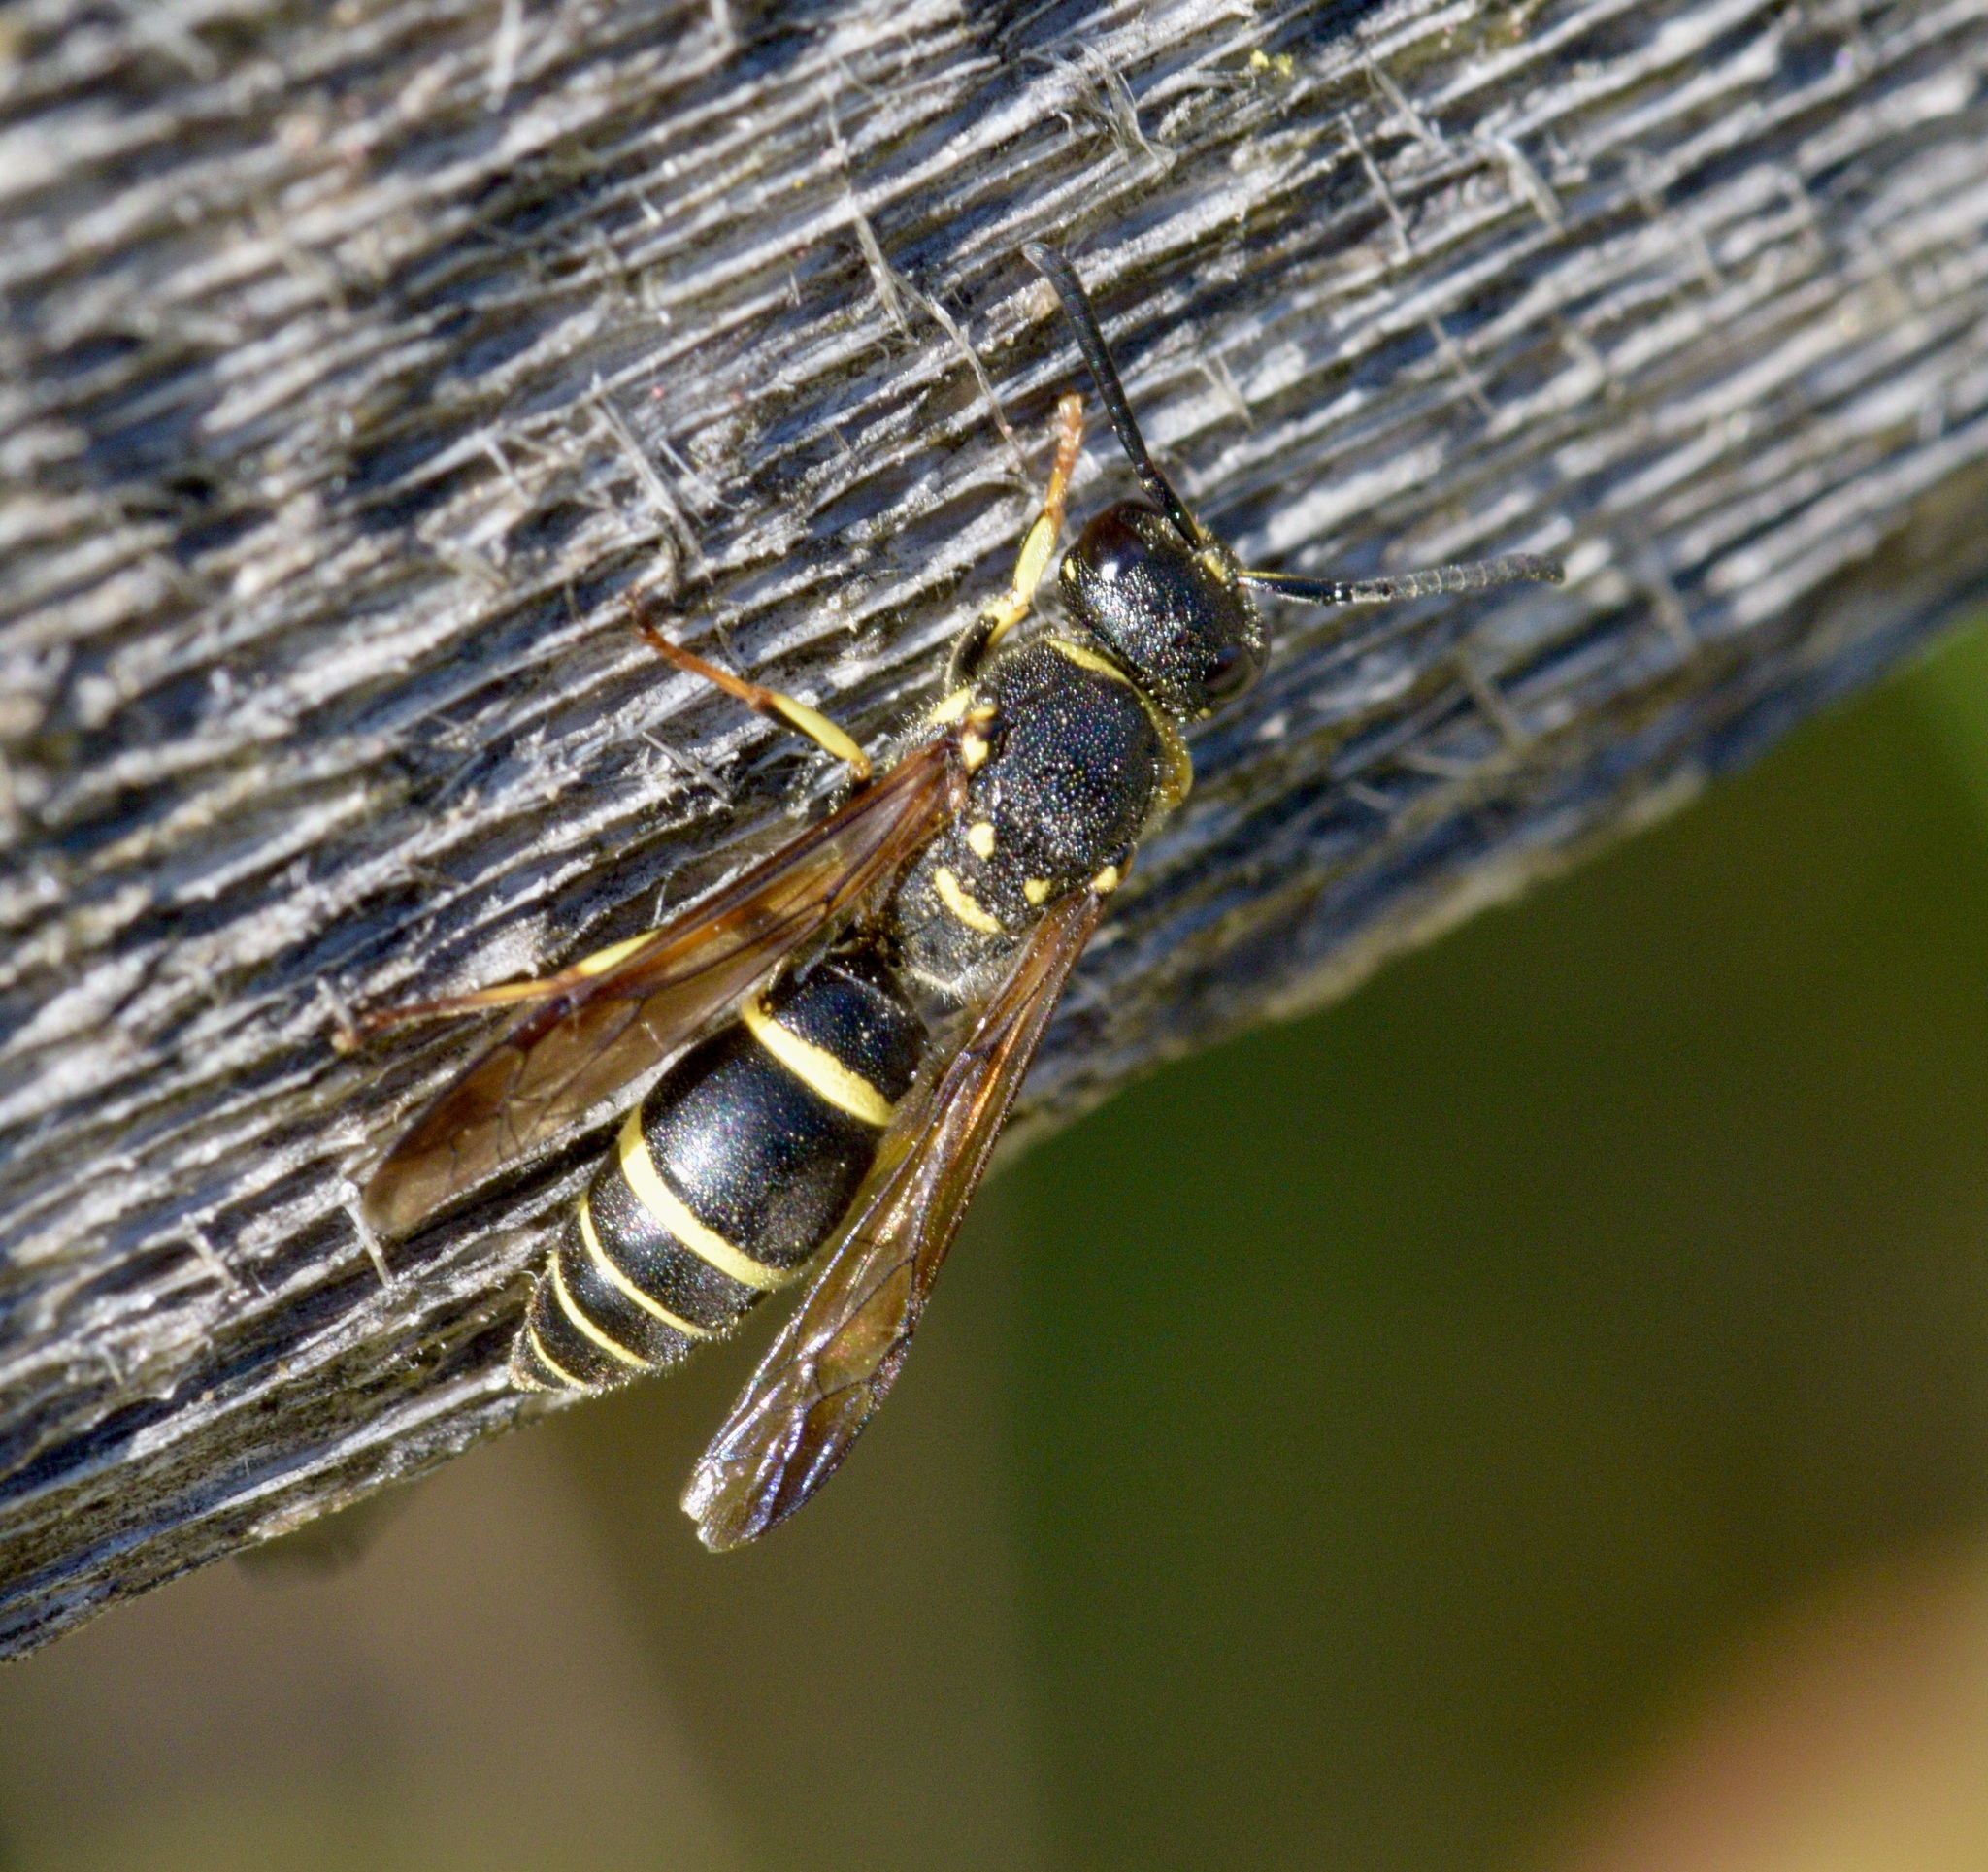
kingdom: Animalia
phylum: Arthropoda
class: Insecta
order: Hymenoptera
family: Vespidae
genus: Ancistrocerus
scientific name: Ancistrocerus adiabatus
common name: Bramble mason wasp
